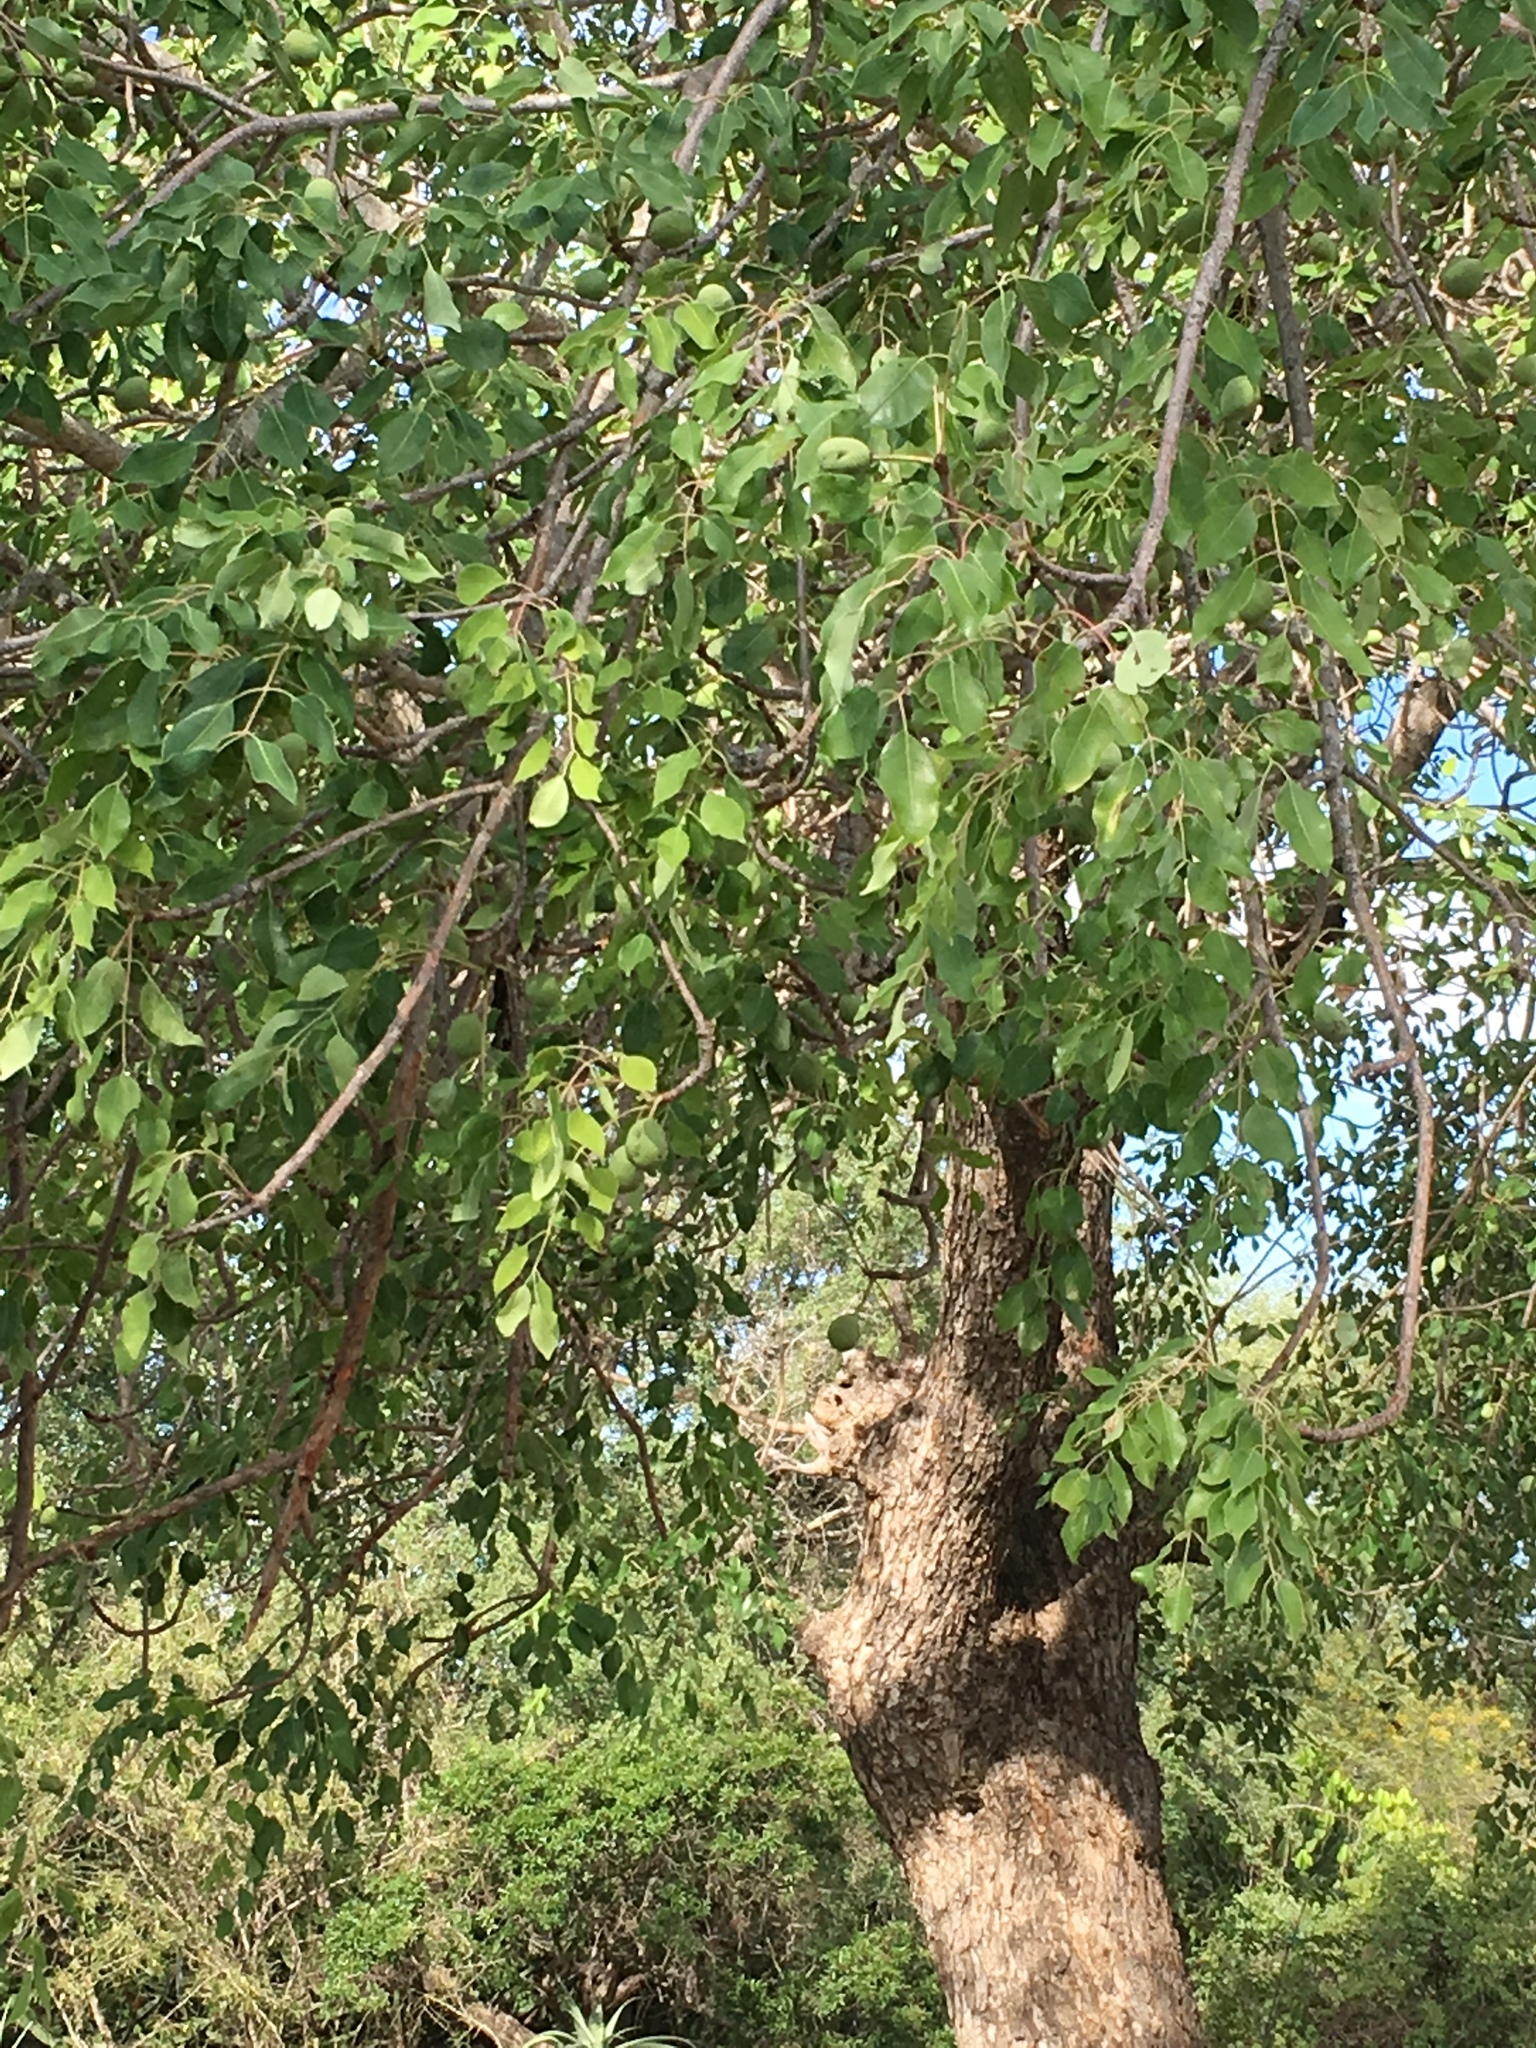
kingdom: Plantae
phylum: Tracheophyta
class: Magnoliopsida
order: Sapindales
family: Anacardiaceae
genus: Sclerocarya
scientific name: Sclerocarya birrea
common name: Marula
